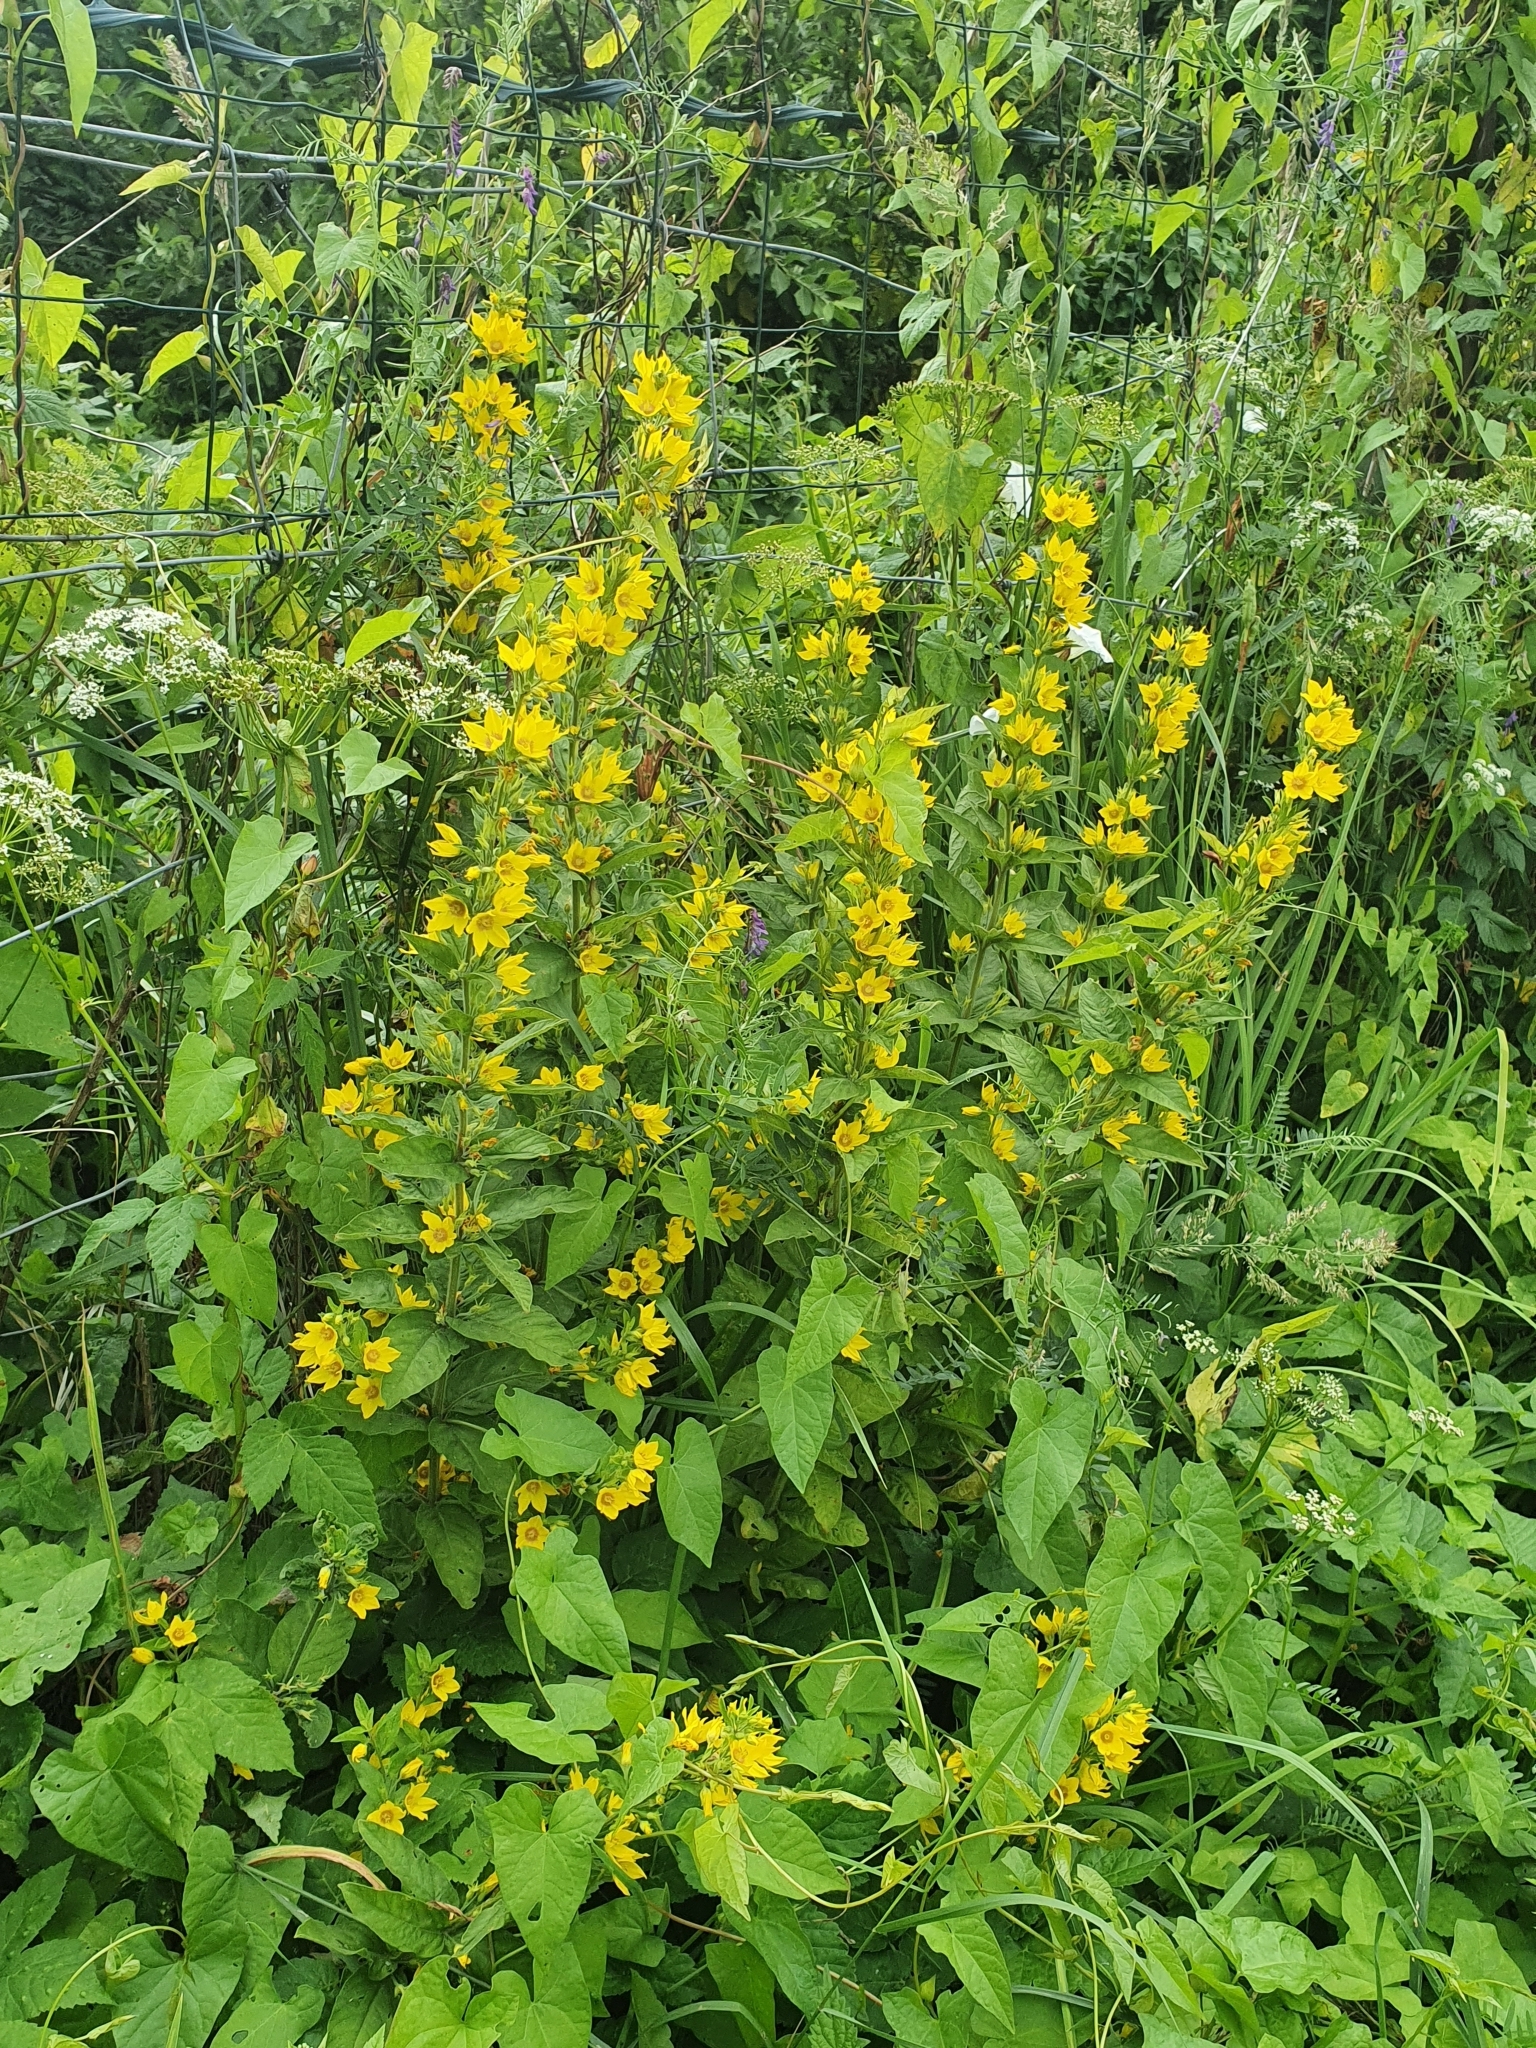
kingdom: Plantae
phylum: Tracheophyta
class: Magnoliopsida
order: Ericales
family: Primulaceae
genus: Lysimachia
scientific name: Lysimachia punctata
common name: Dotted loosestrife
